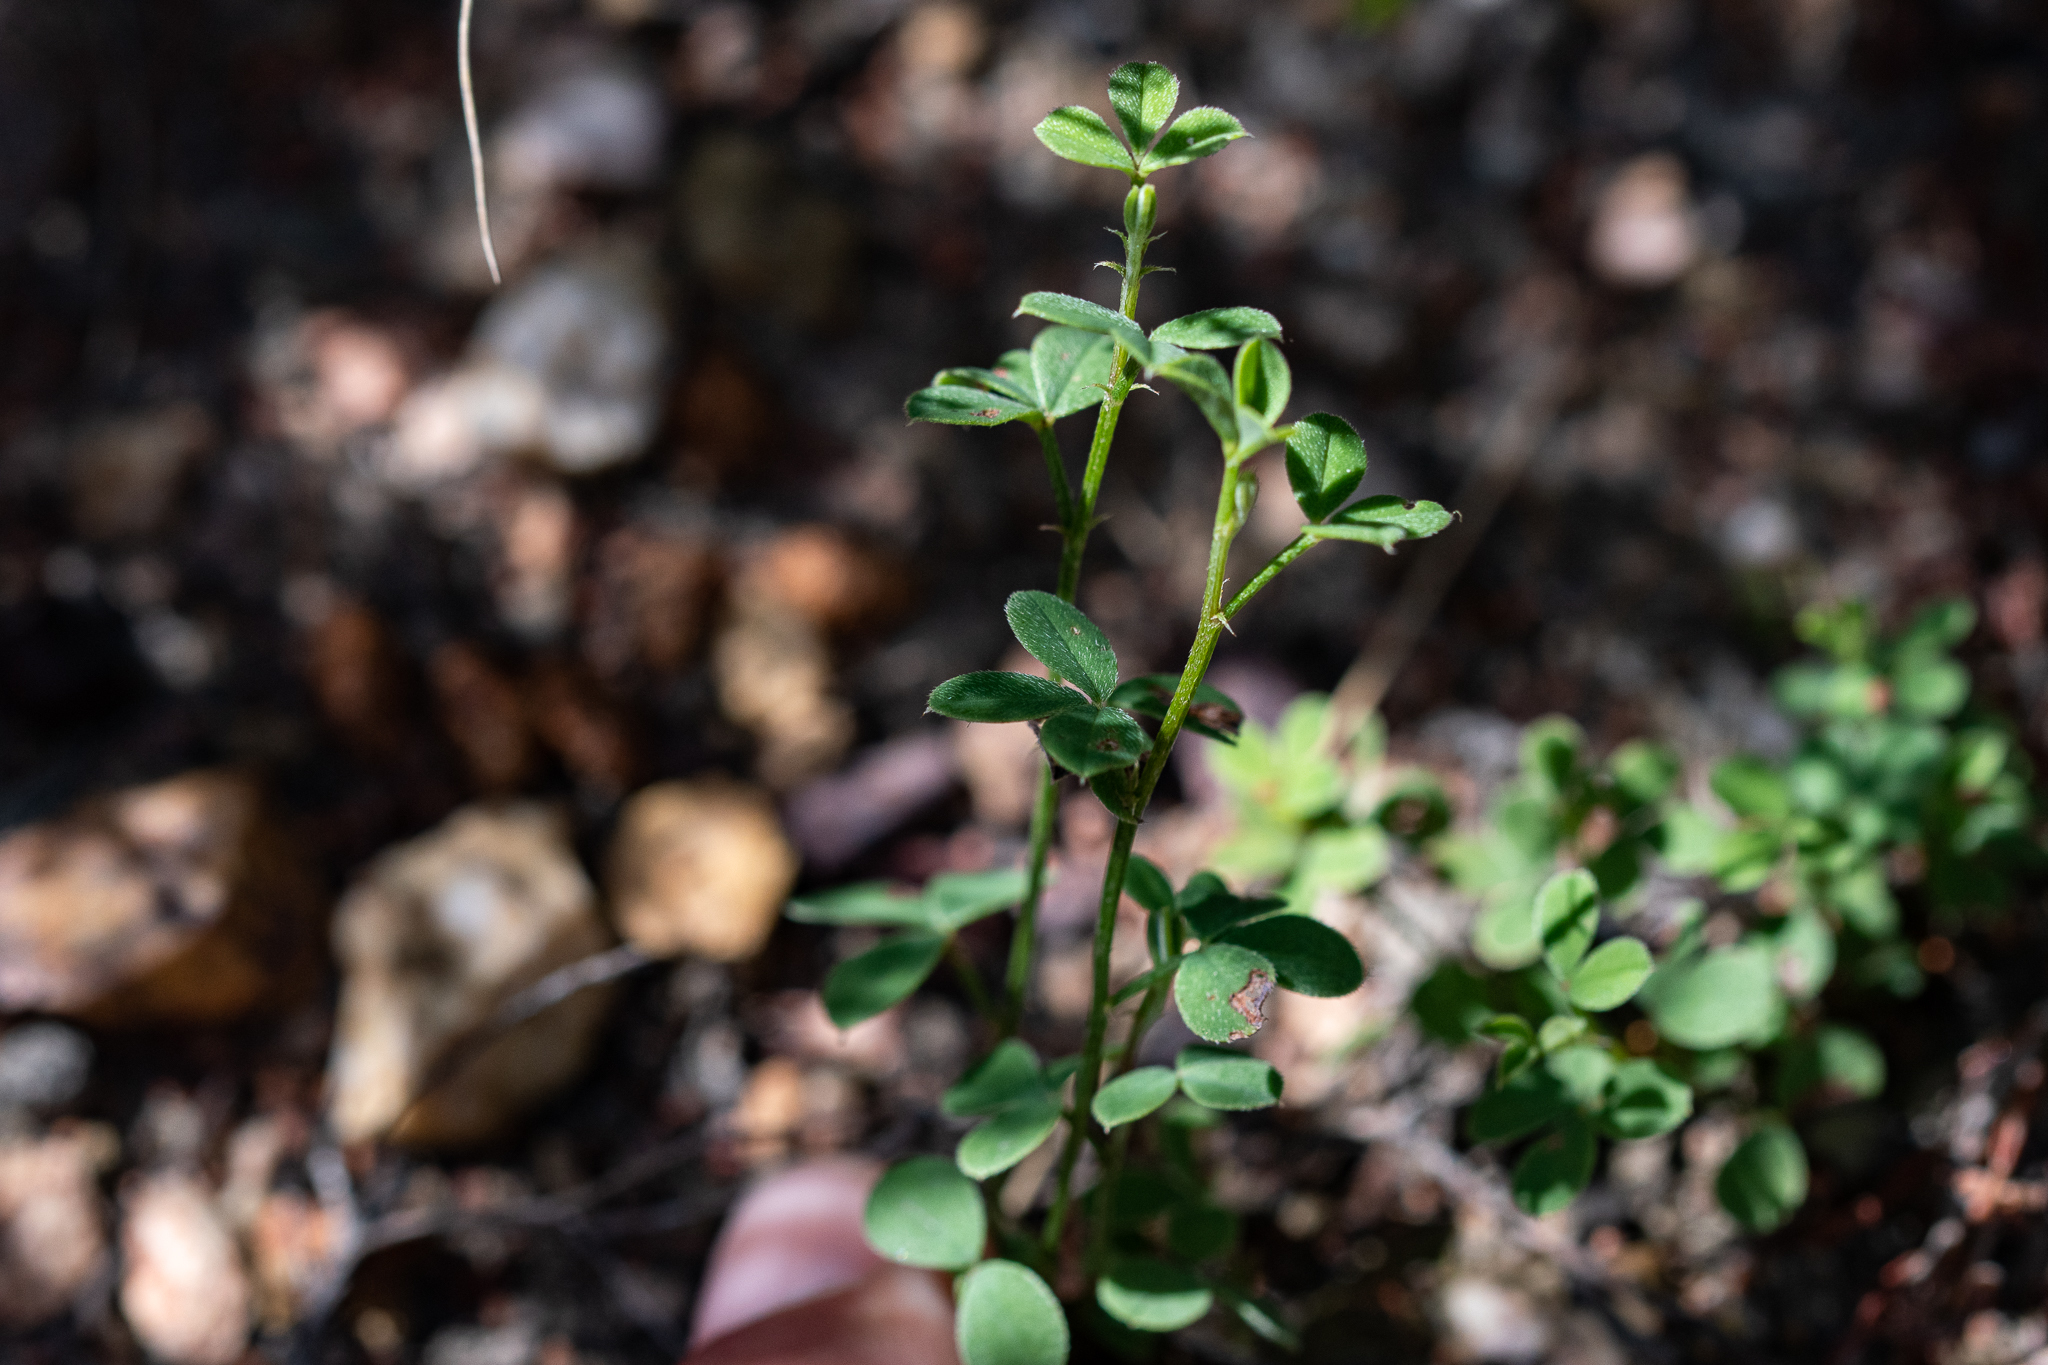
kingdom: Plantae
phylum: Tracheophyta
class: Magnoliopsida
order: Fabales
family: Fabaceae
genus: Indigofera
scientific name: Indigofera heterophylla
